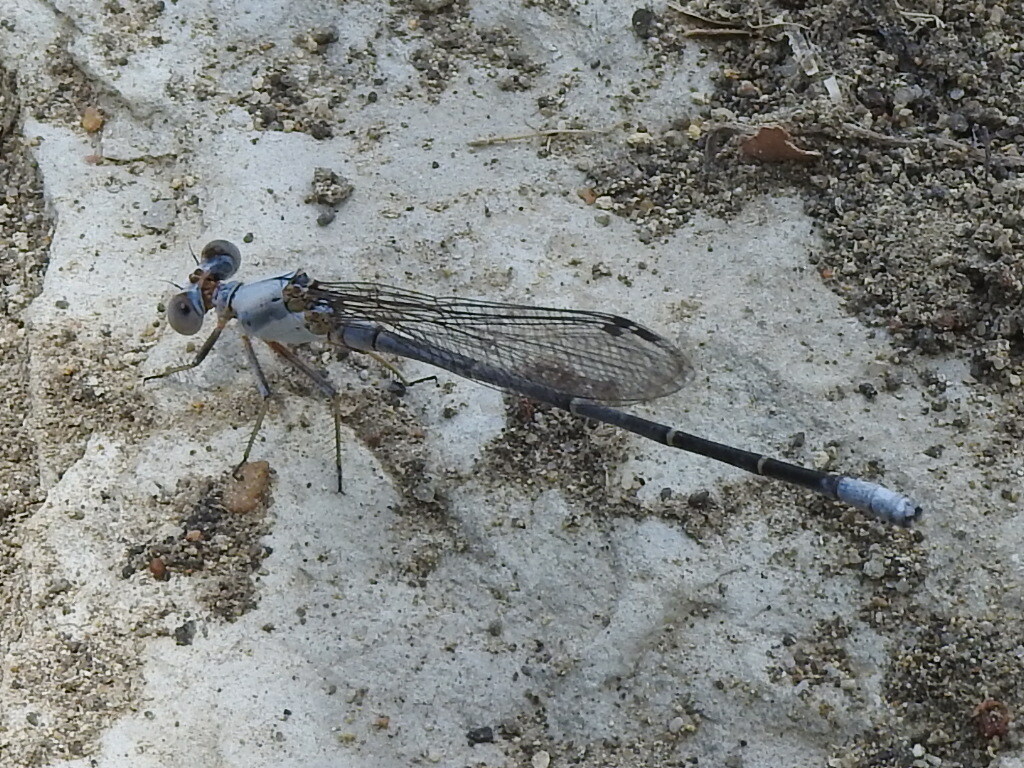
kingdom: Animalia
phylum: Arthropoda
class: Insecta
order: Odonata
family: Coenagrionidae
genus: Argia
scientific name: Argia moesta
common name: Powdered dancer
